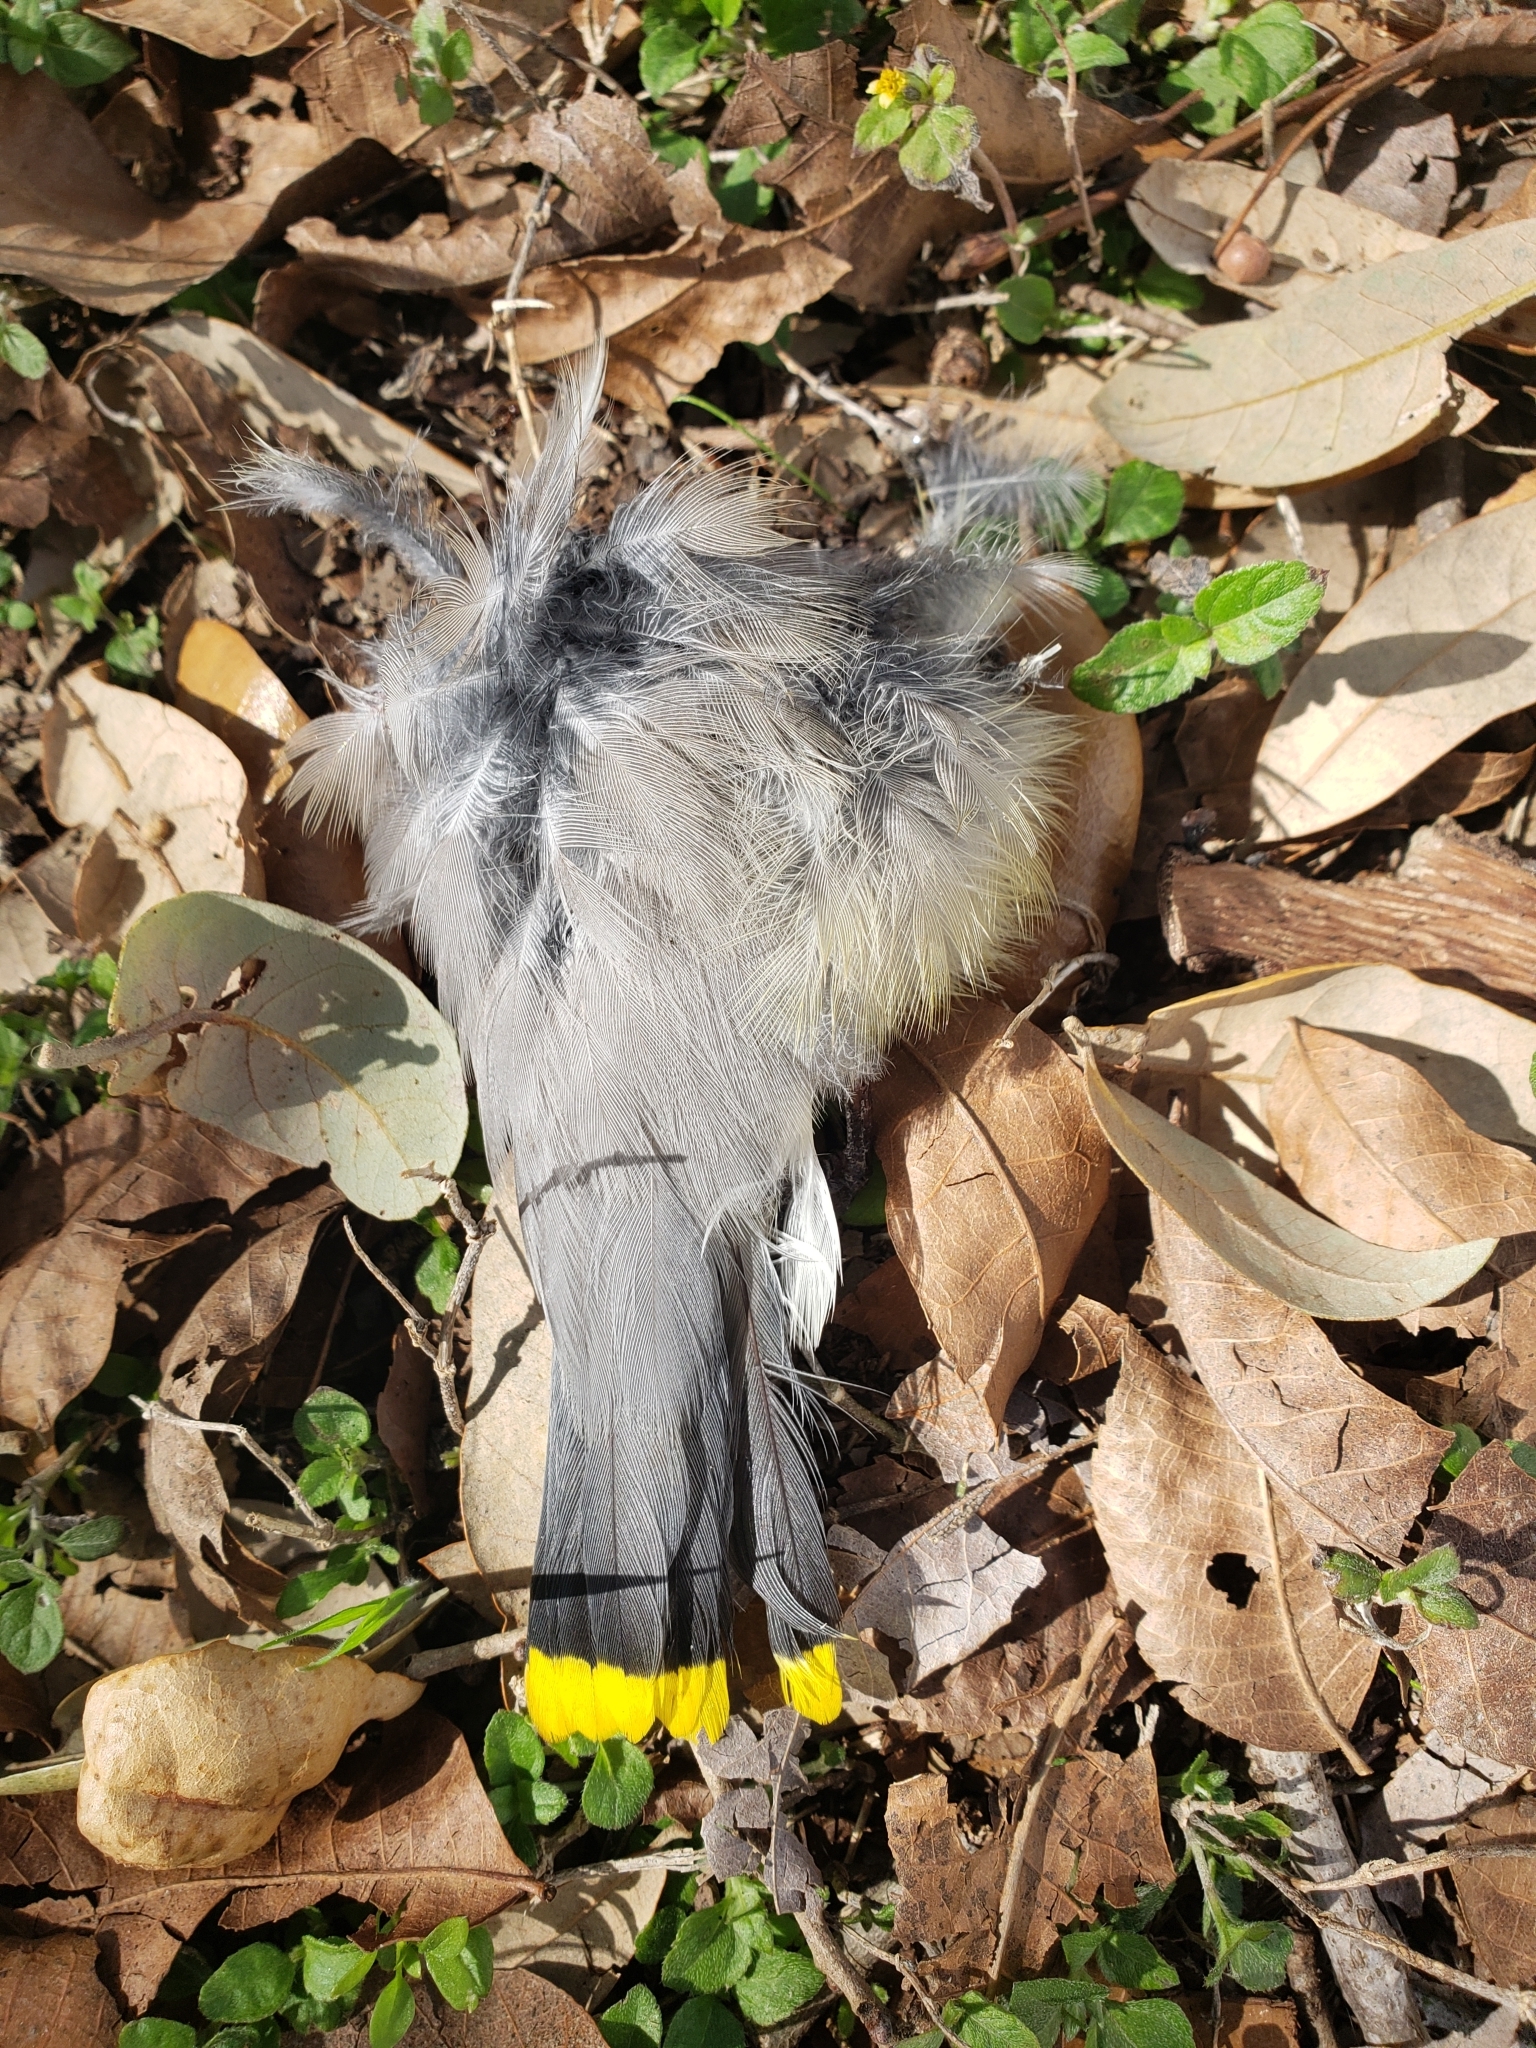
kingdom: Animalia
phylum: Chordata
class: Aves
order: Passeriformes
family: Bombycillidae
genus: Bombycilla
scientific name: Bombycilla cedrorum
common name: Cedar waxwing
